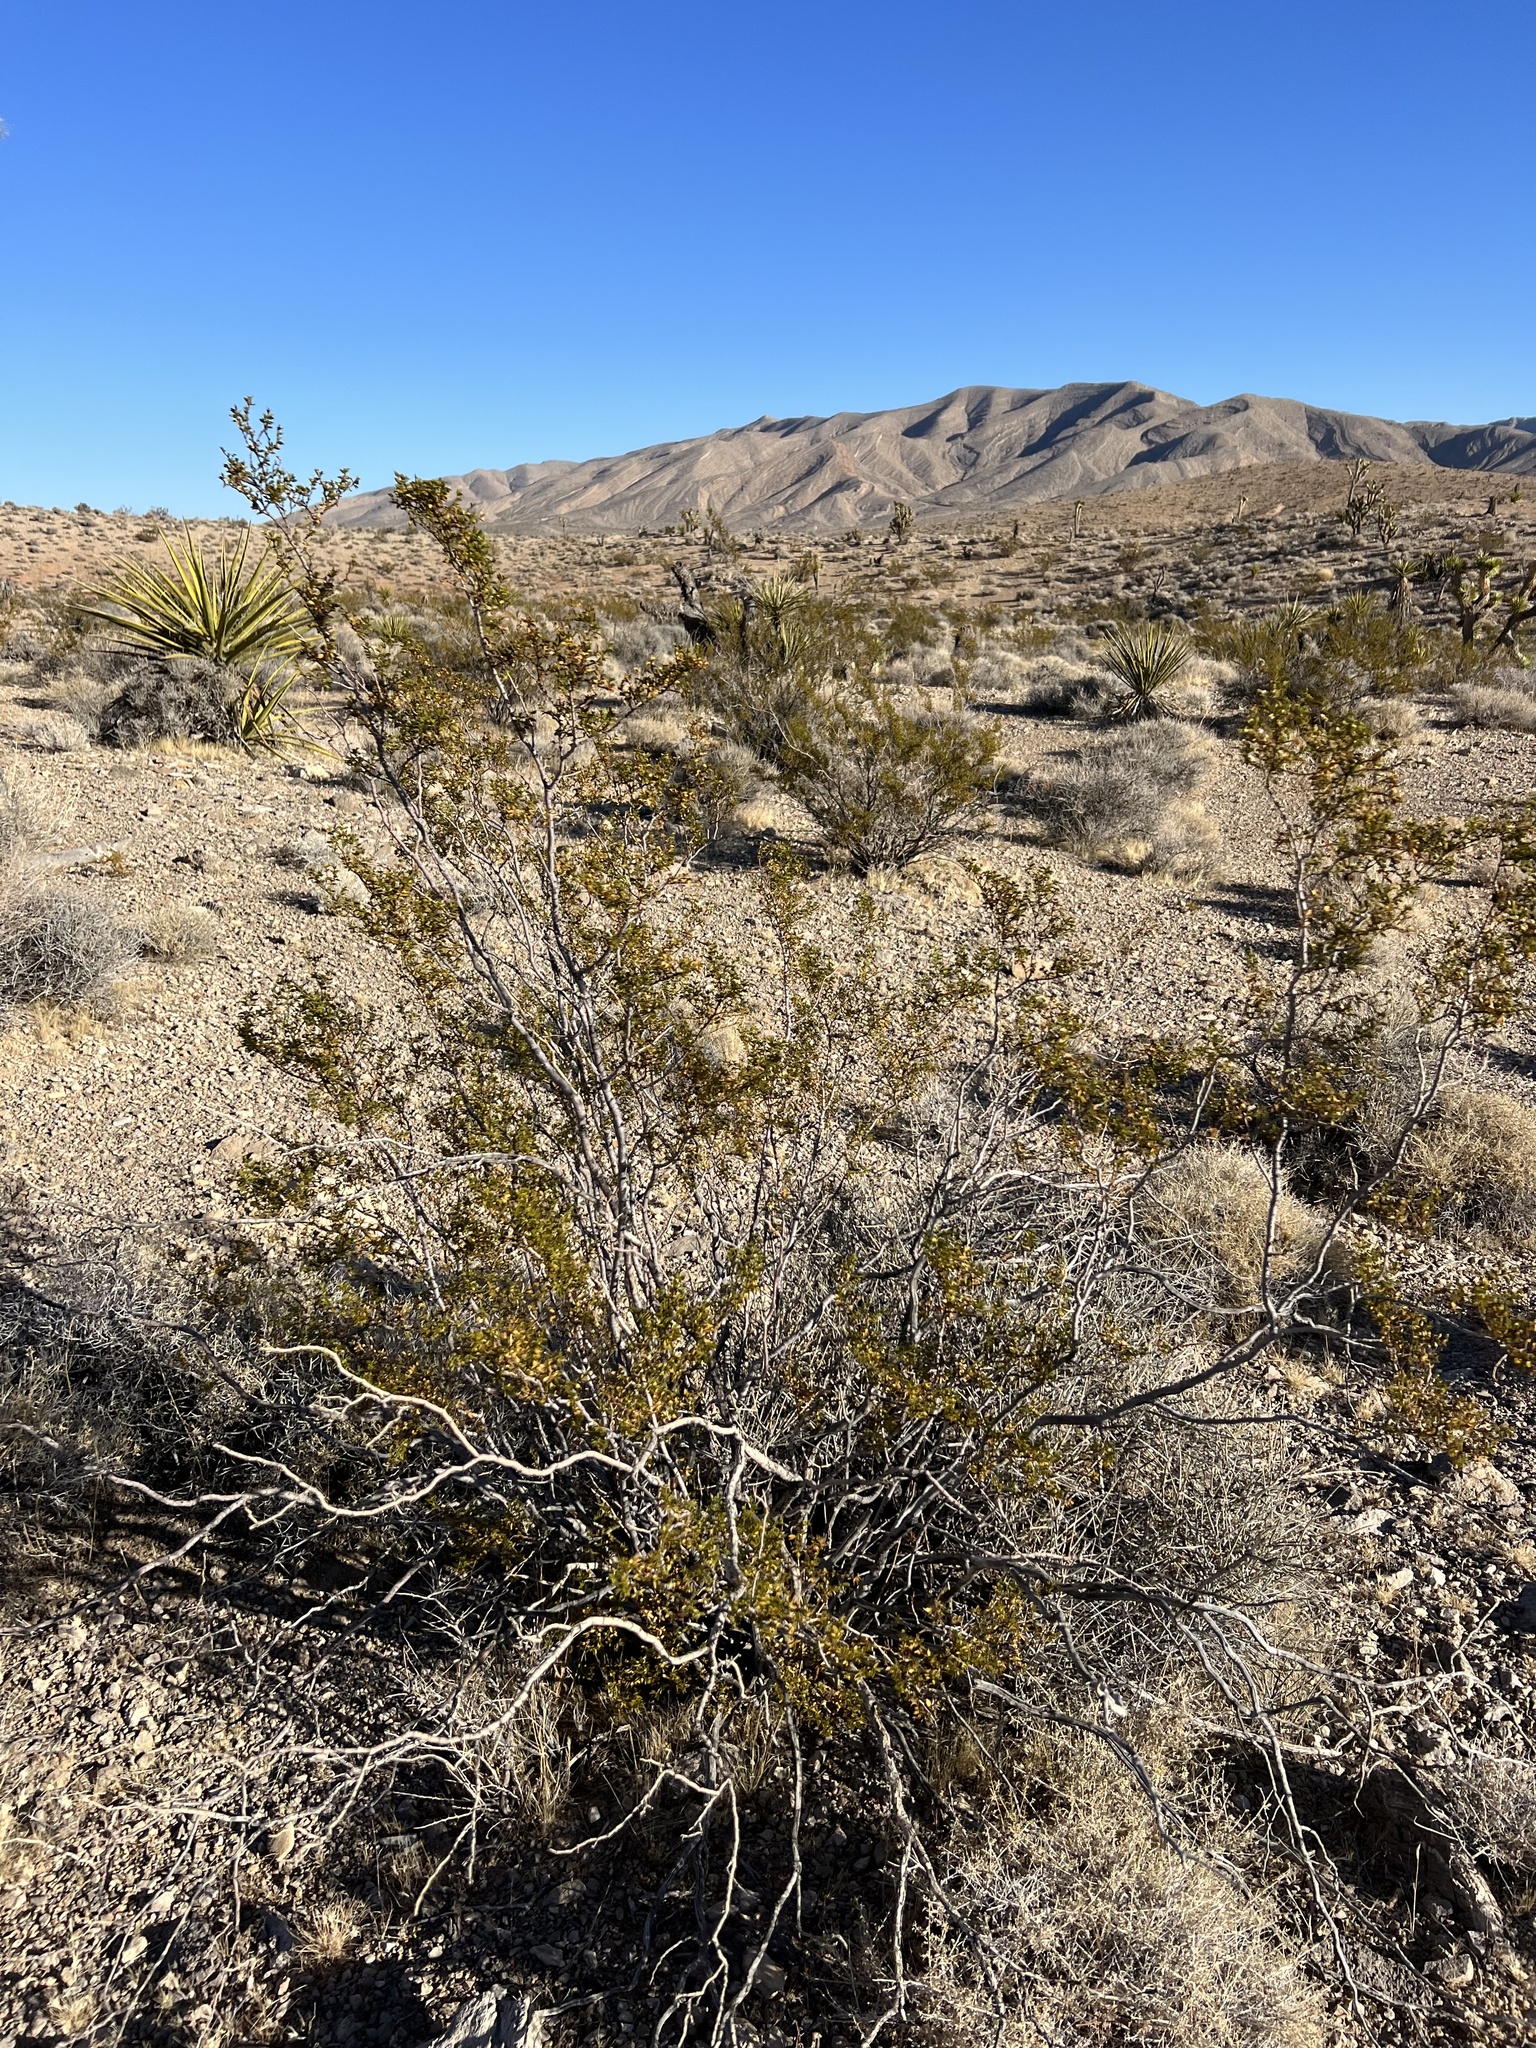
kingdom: Plantae
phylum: Tracheophyta
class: Magnoliopsida
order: Zygophyllales
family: Zygophyllaceae
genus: Larrea
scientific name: Larrea tridentata
